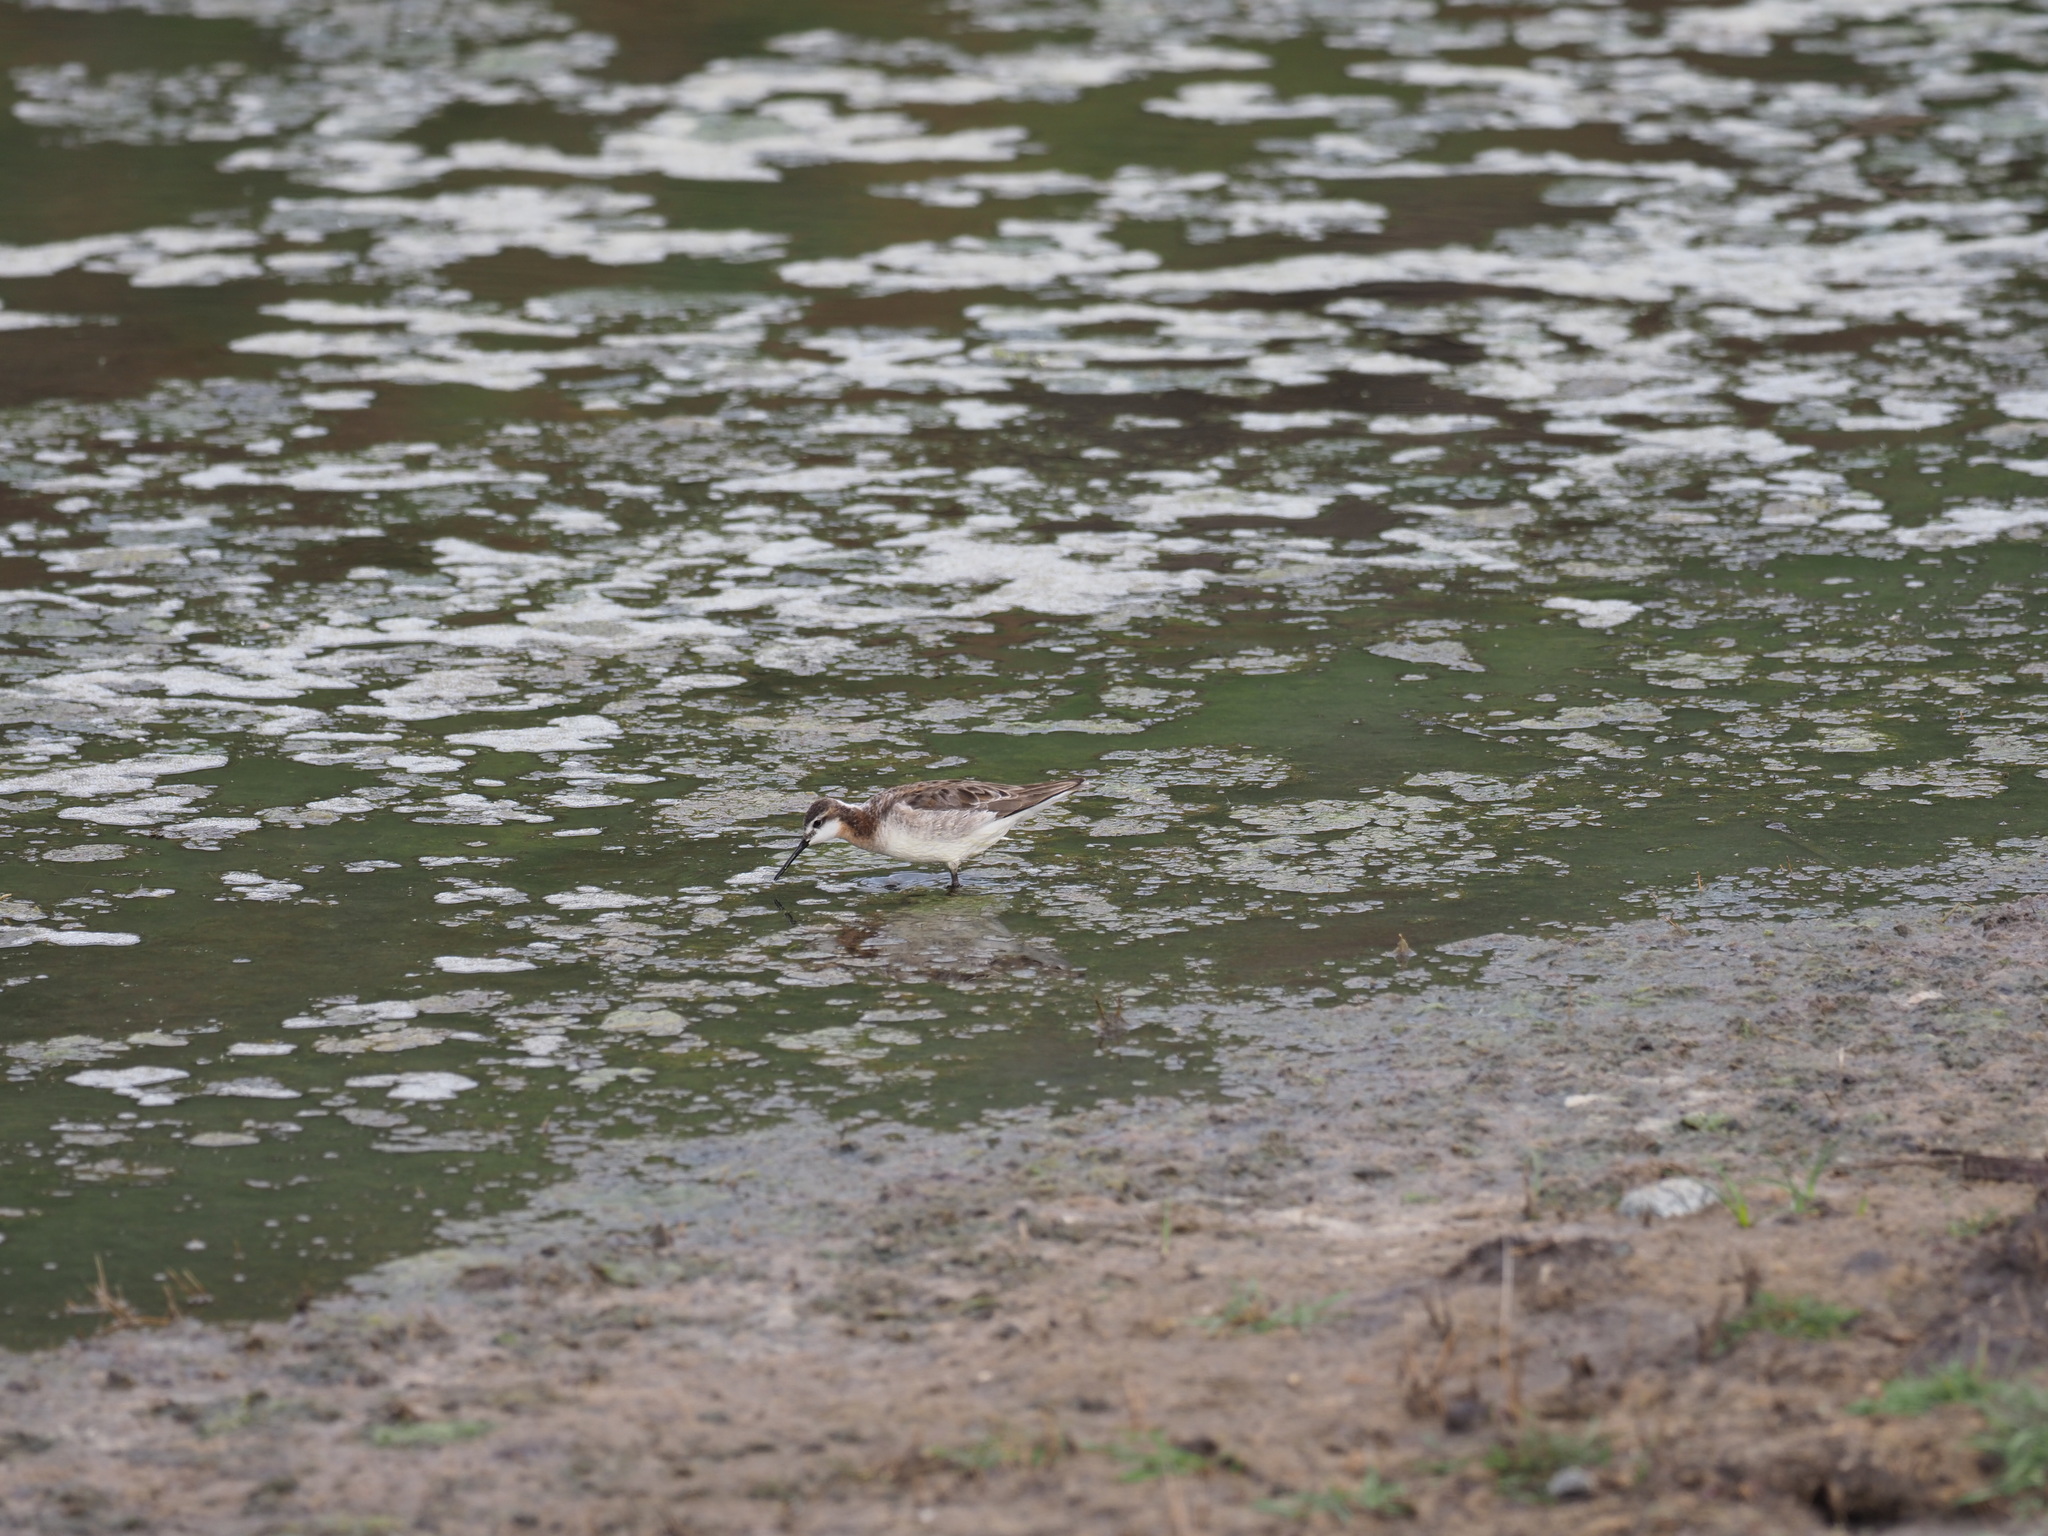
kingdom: Animalia
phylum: Chordata
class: Aves
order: Charadriiformes
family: Scolopacidae
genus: Phalaropus
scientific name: Phalaropus tricolor
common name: Wilson's phalarope
